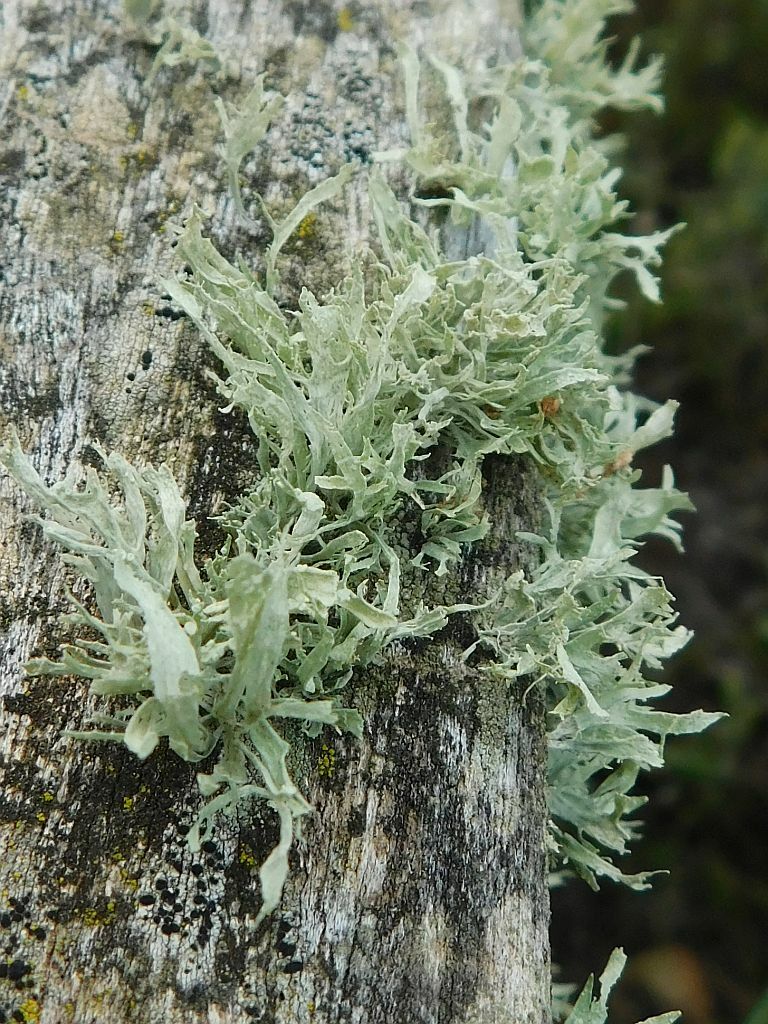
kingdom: Fungi
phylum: Ascomycota
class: Lecanoromycetes
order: Lecanorales
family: Ramalinaceae
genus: Ramalina
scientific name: Ramalina celastri
